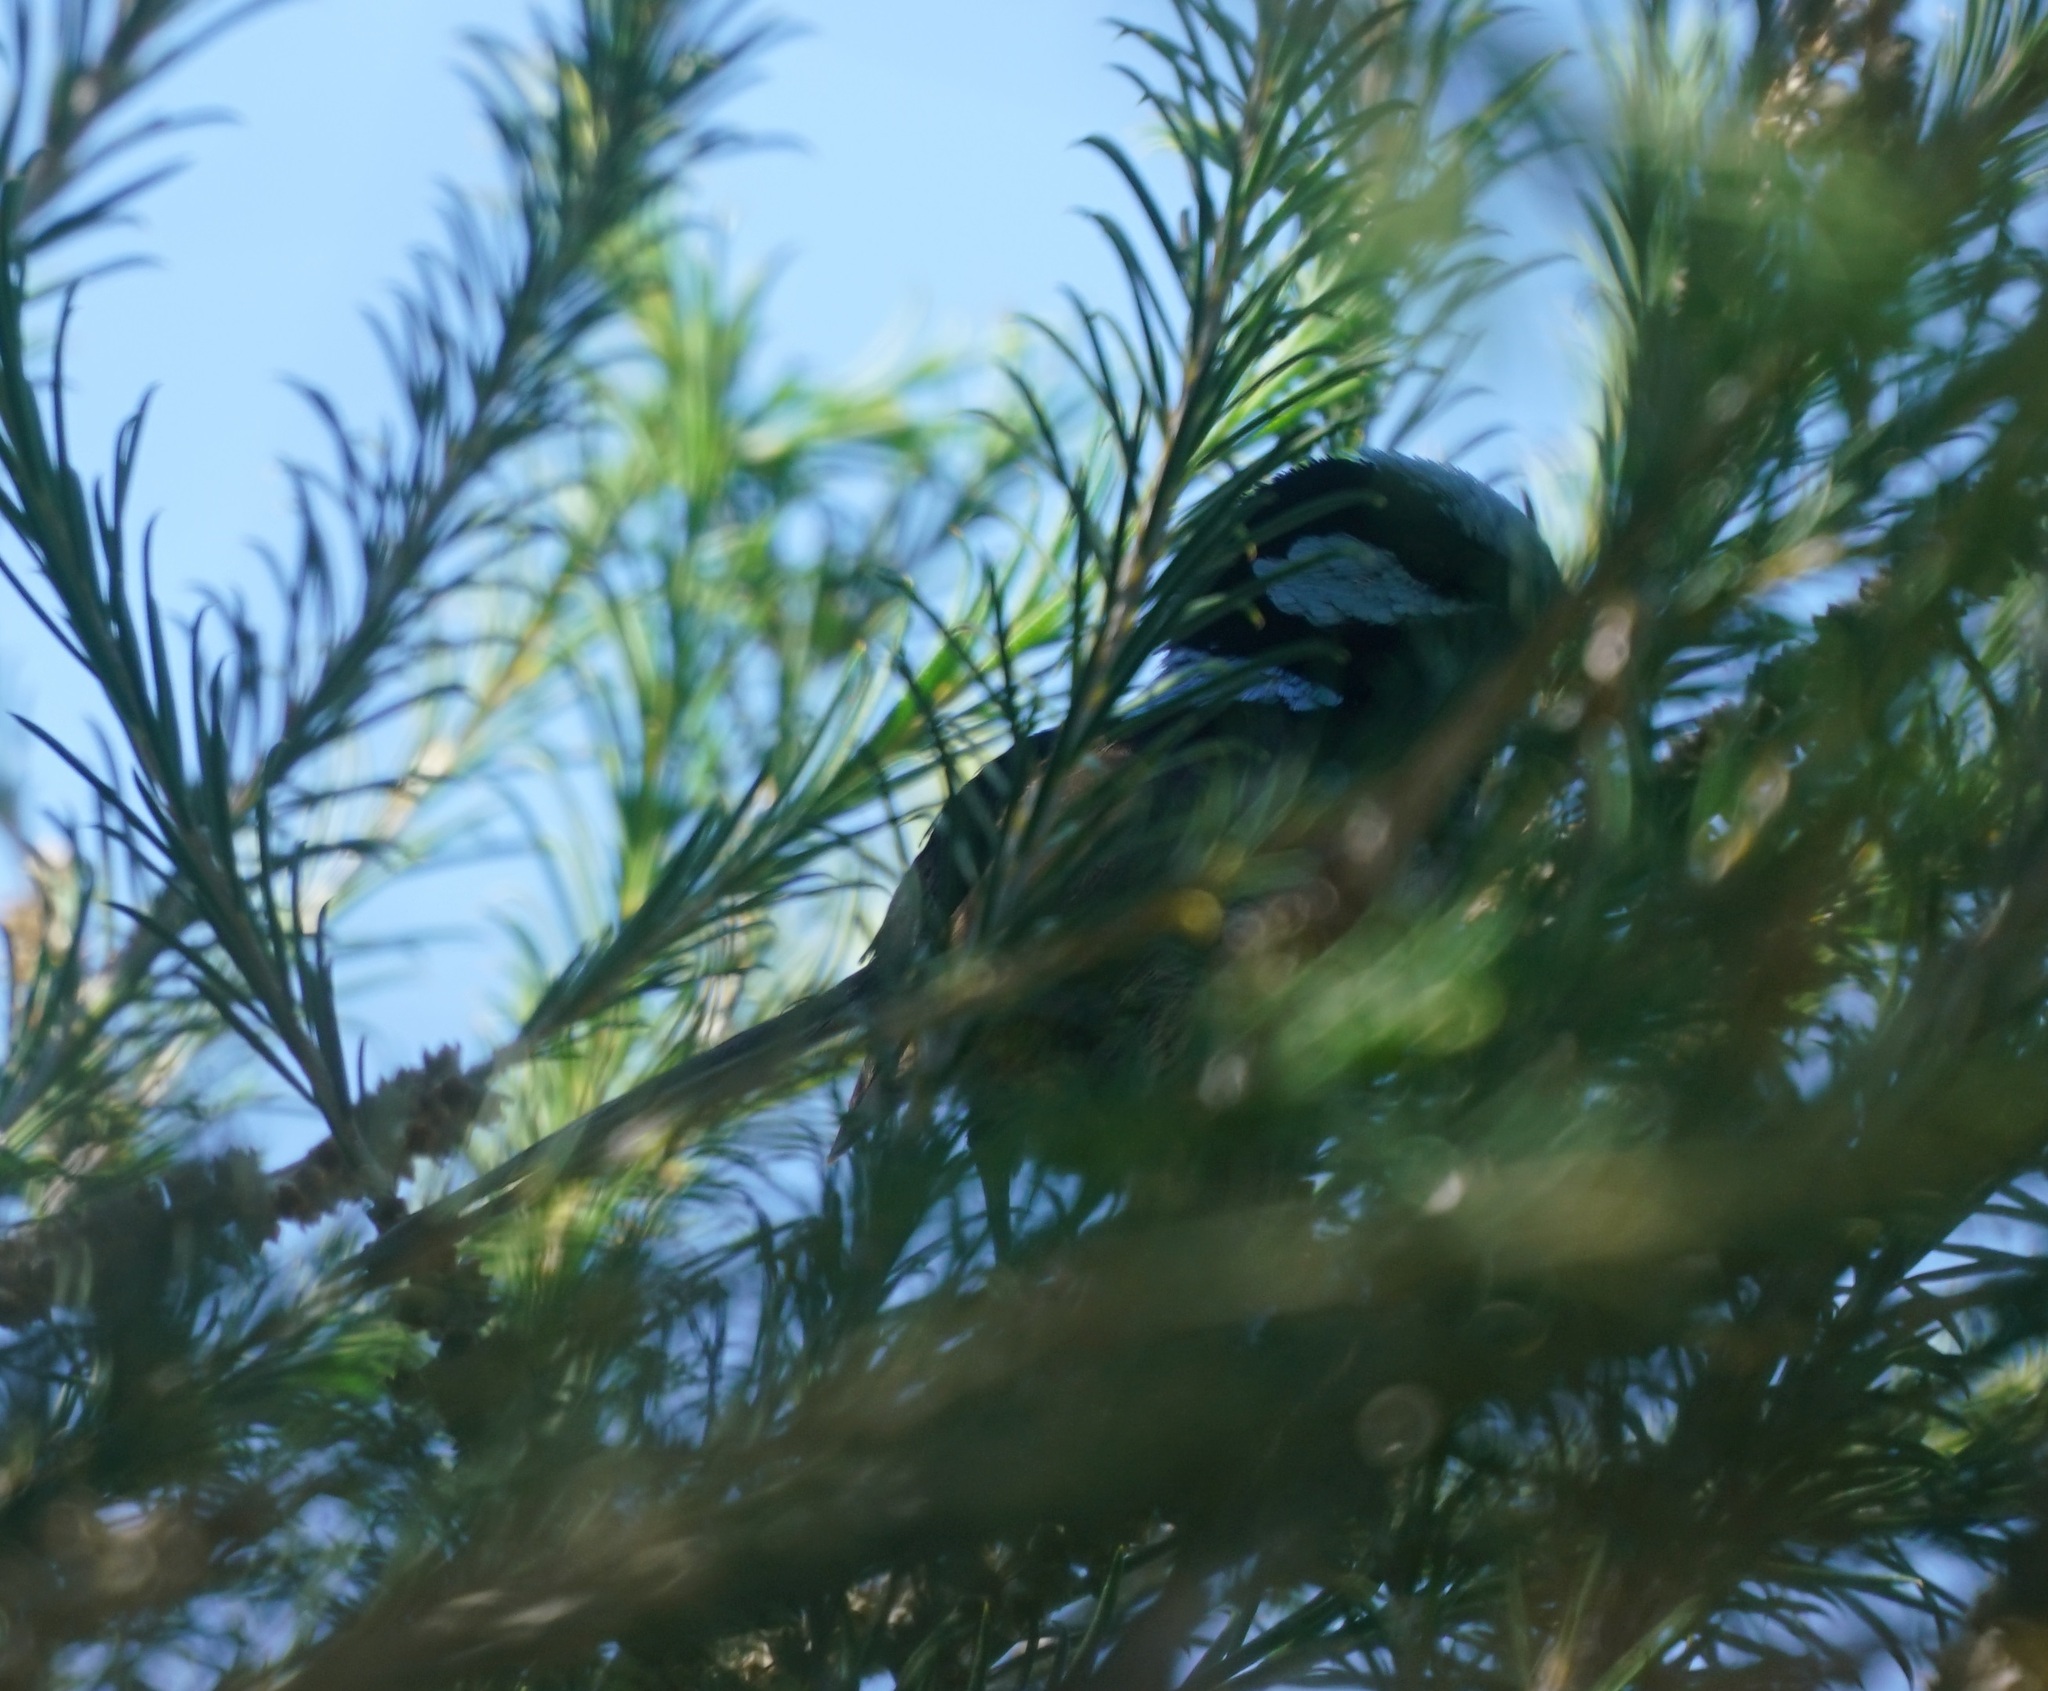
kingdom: Animalia
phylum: Chordata
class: Aves
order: Passeriformes
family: Maluridae
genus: Malurus
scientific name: Malurus cyaneus
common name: Superb fairywren
